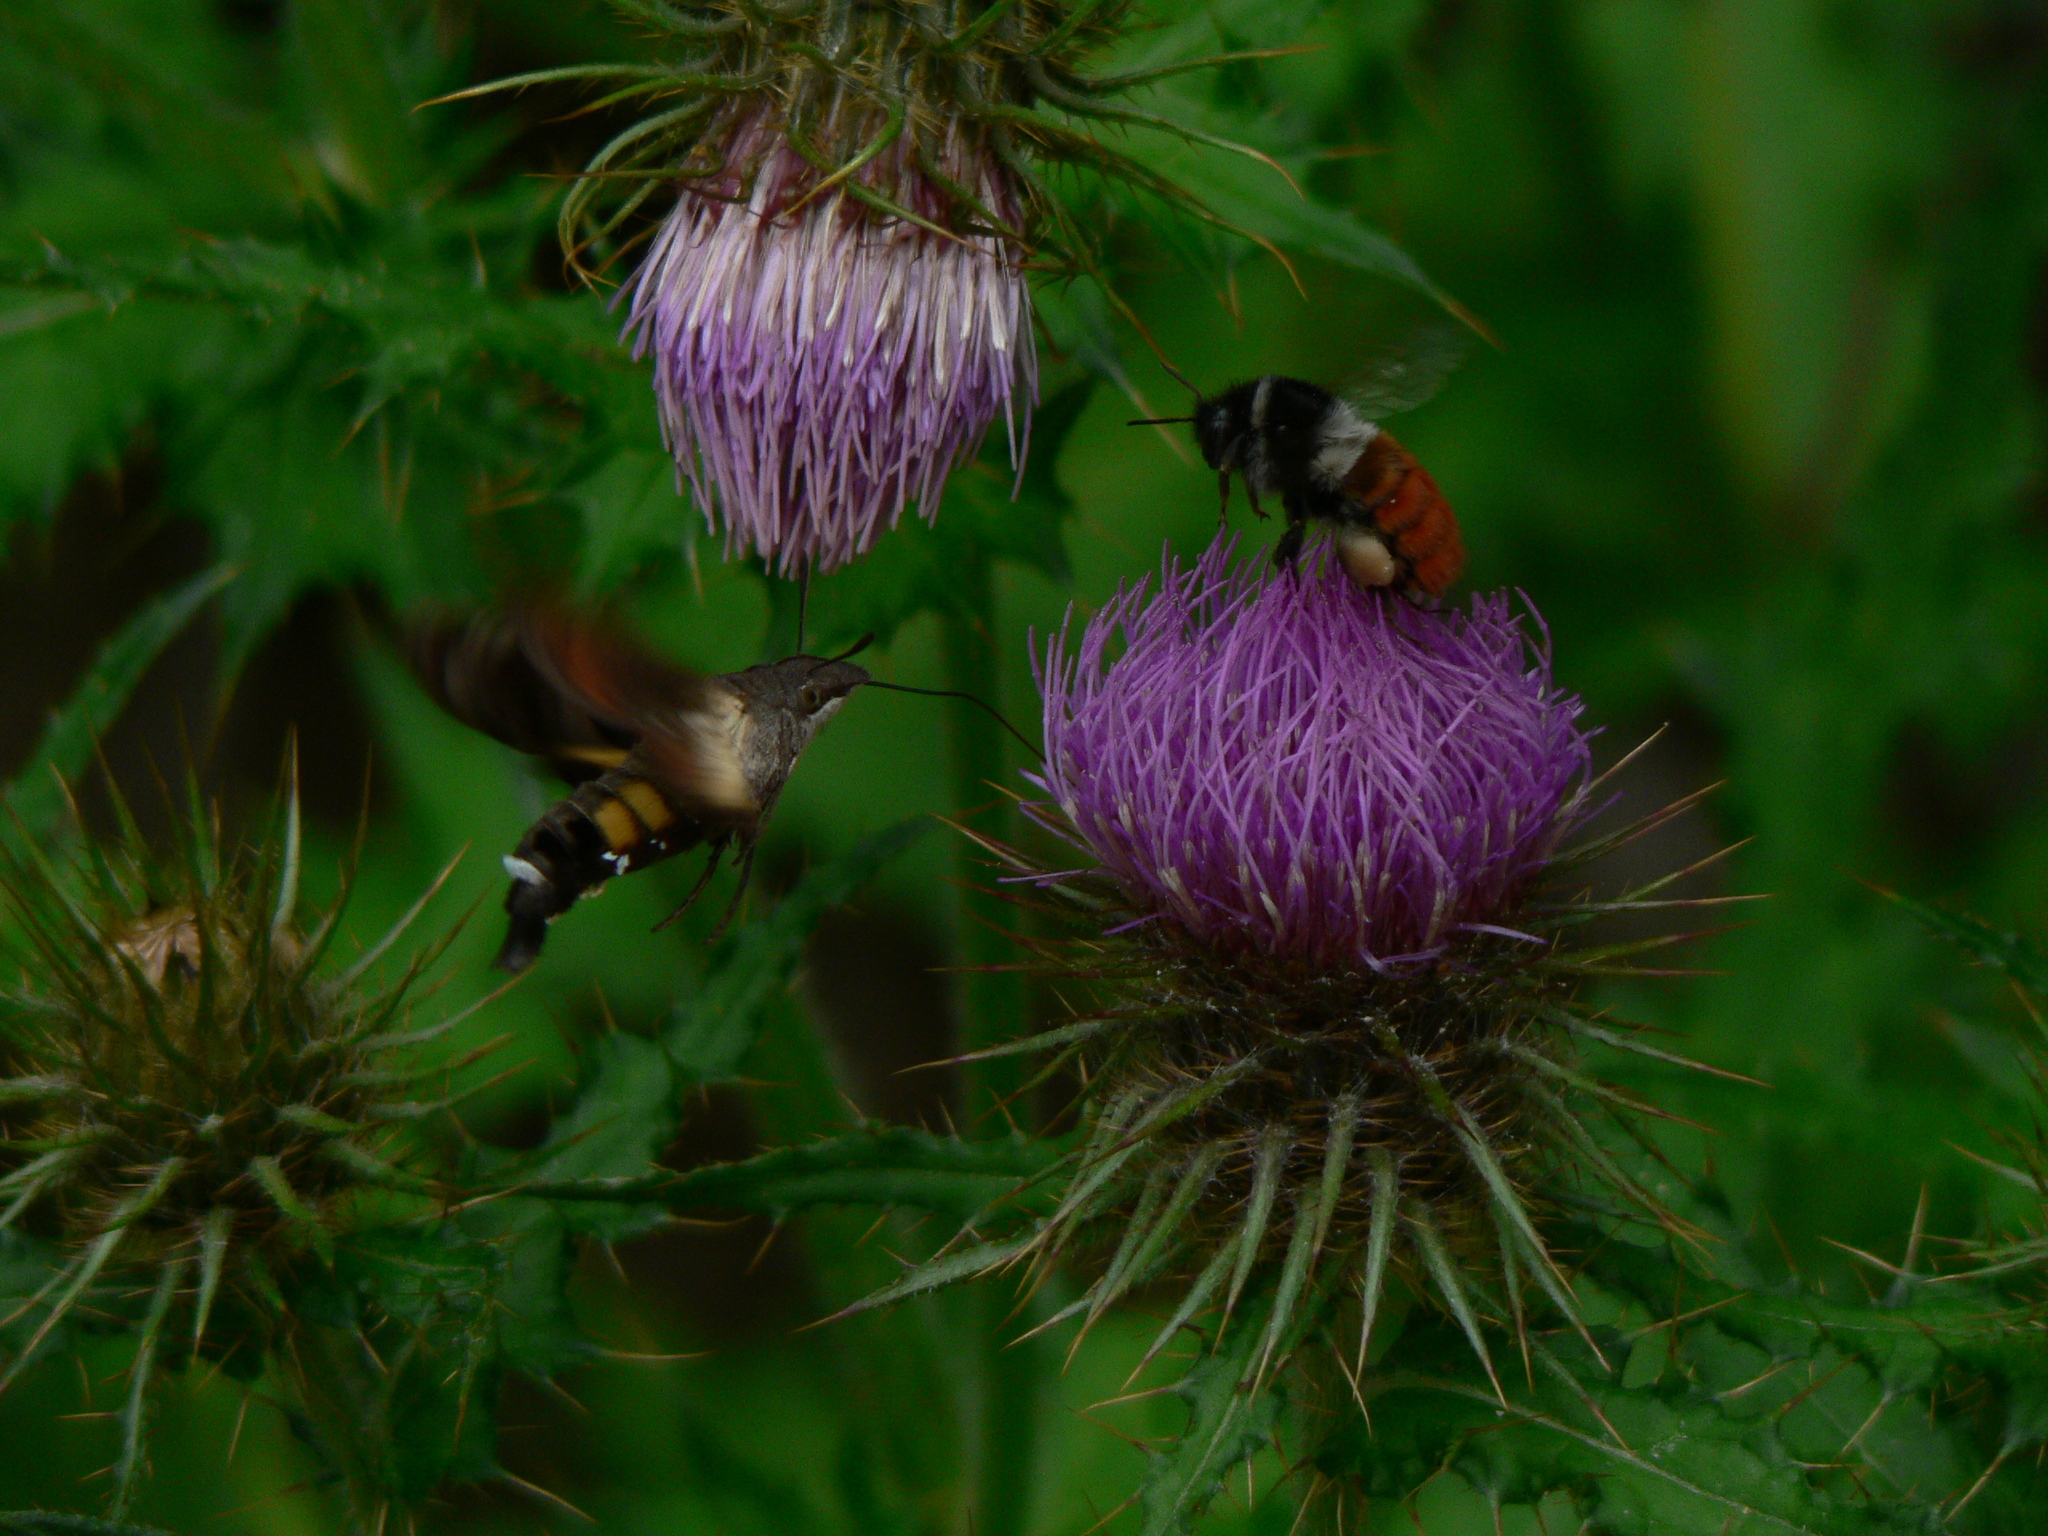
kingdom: Animalia
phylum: Arthropoda
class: Insecta
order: Hymenoptera
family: Apidae
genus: Bombus
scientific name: Bombus pyrosoma
